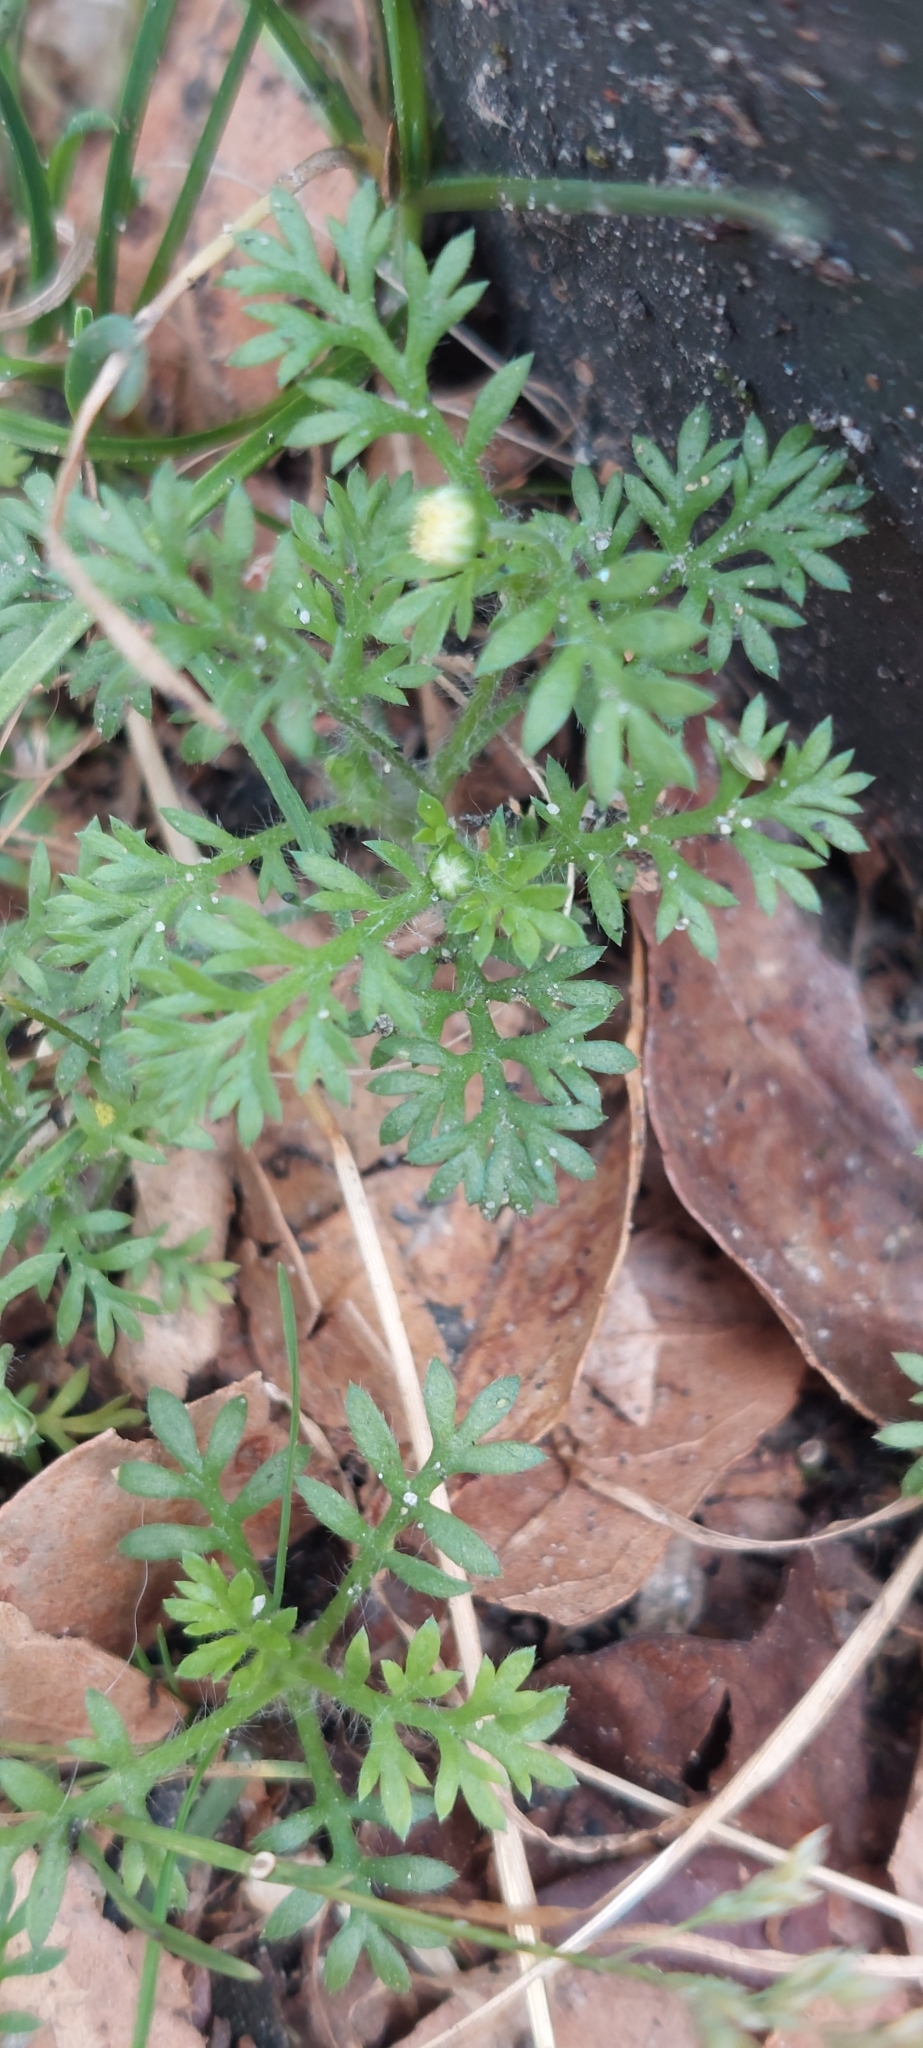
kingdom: Plantae
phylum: Tracheophyta
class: Magnoliopsida
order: Asterales
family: Asteraceae
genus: Cotula
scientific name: Cotula australis
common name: Australian waterbuttons
